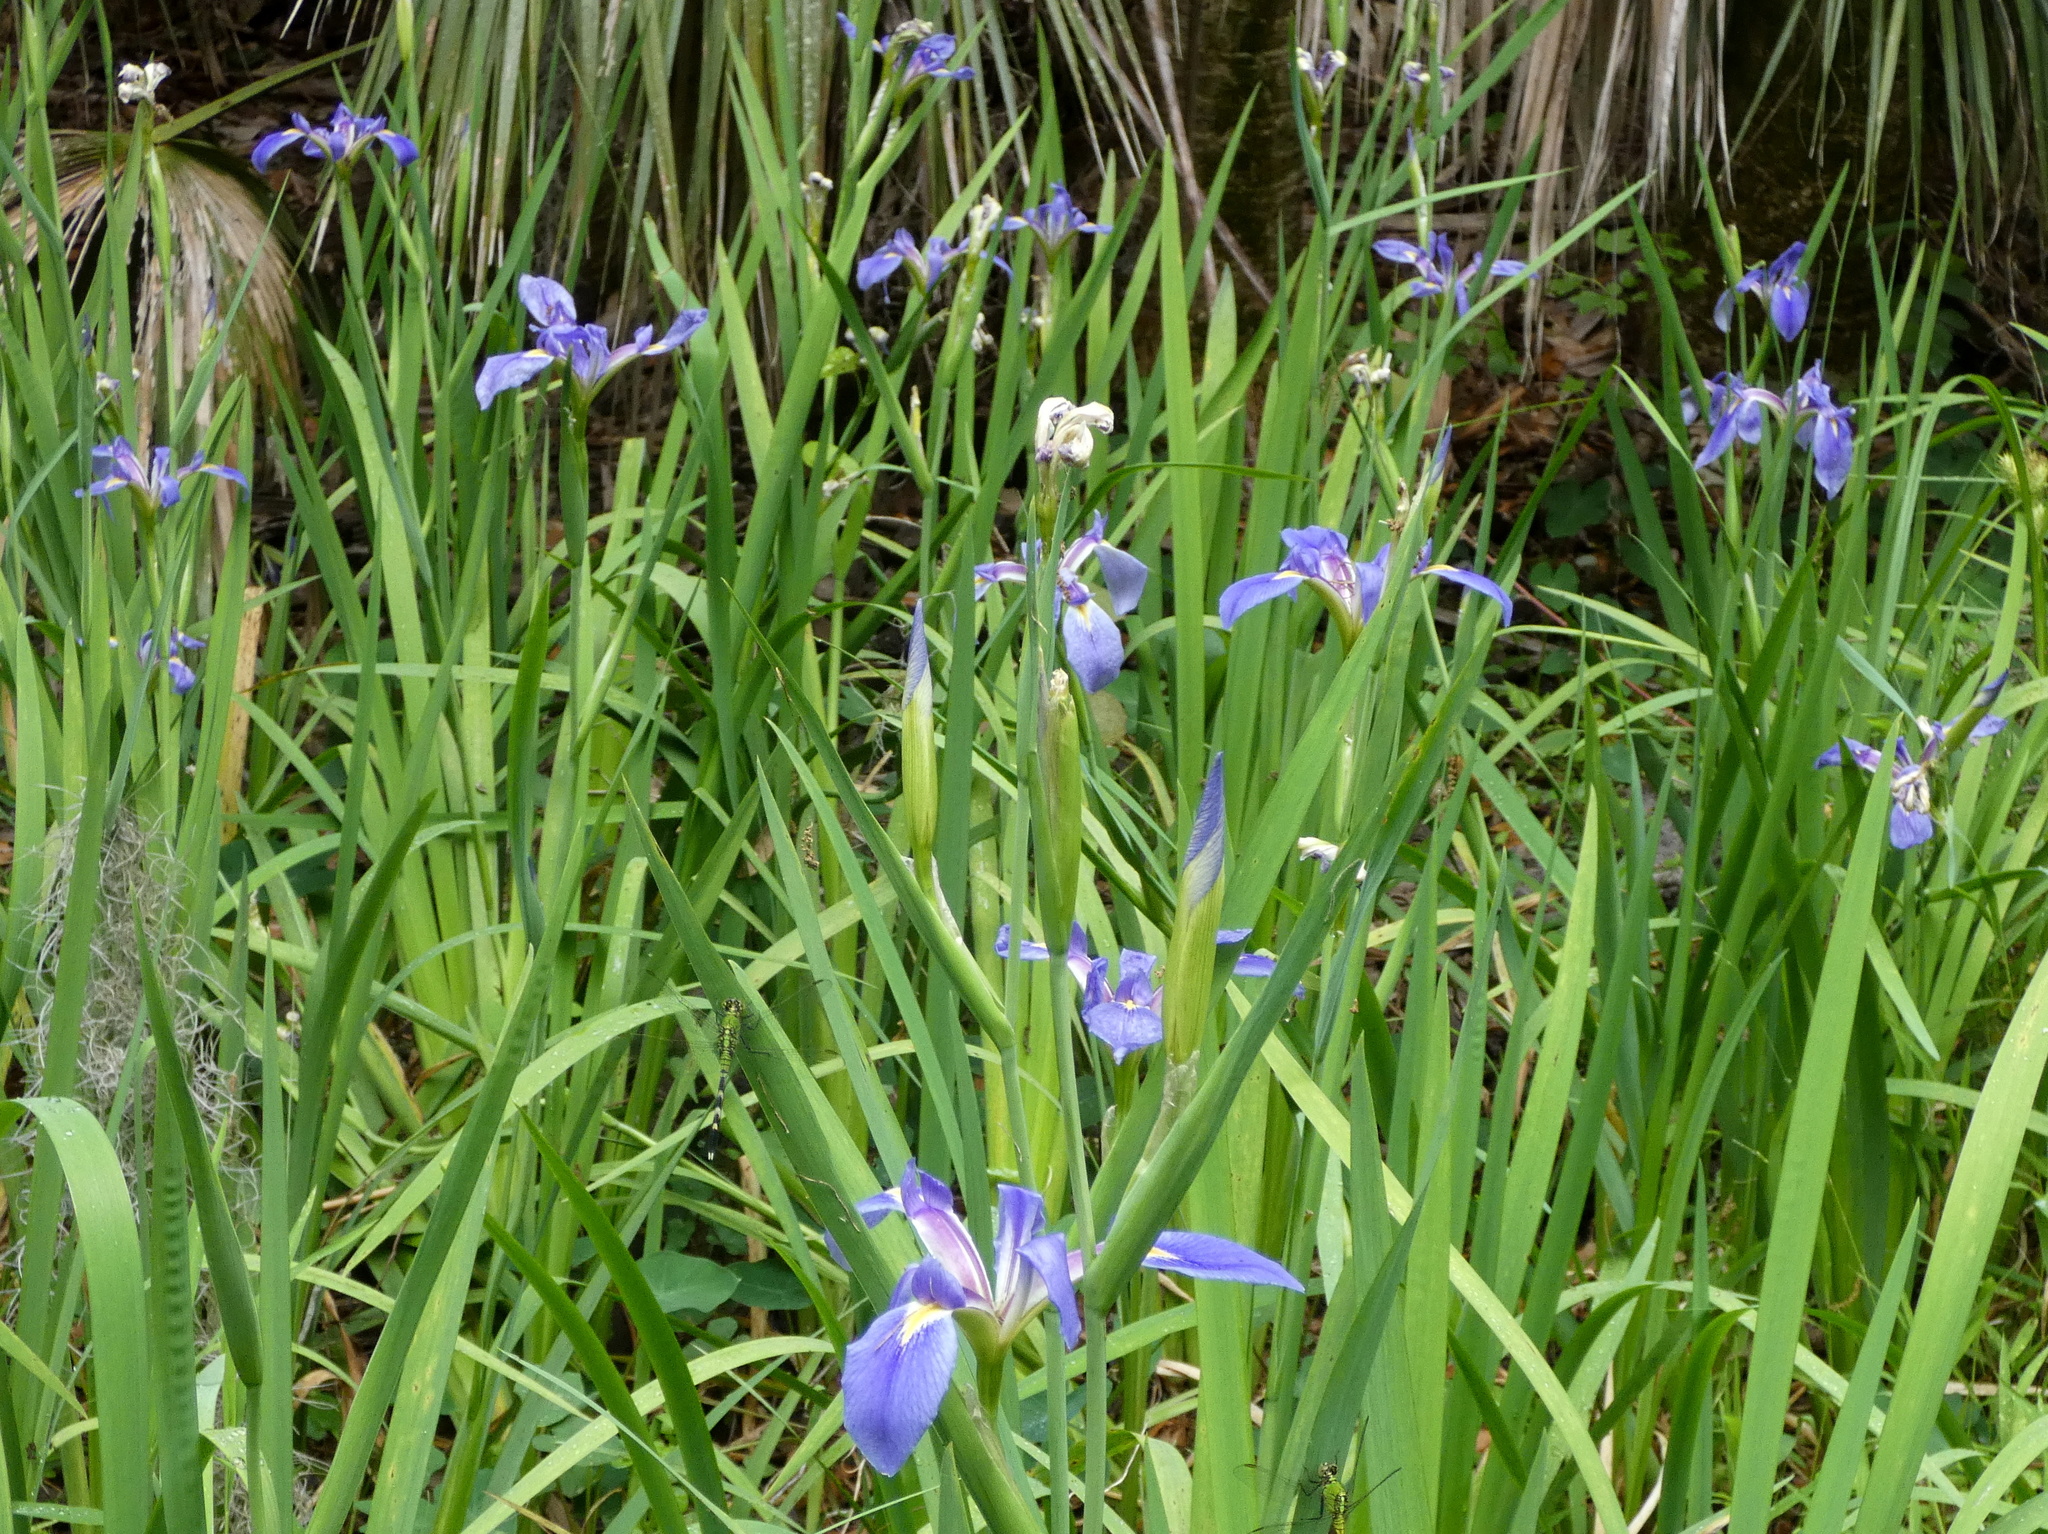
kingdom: Plantae
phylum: Tracheophyta
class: Liliopsida
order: Asparagales
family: Iridaceae
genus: Iris
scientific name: Iris savannarum
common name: Prairie iris
